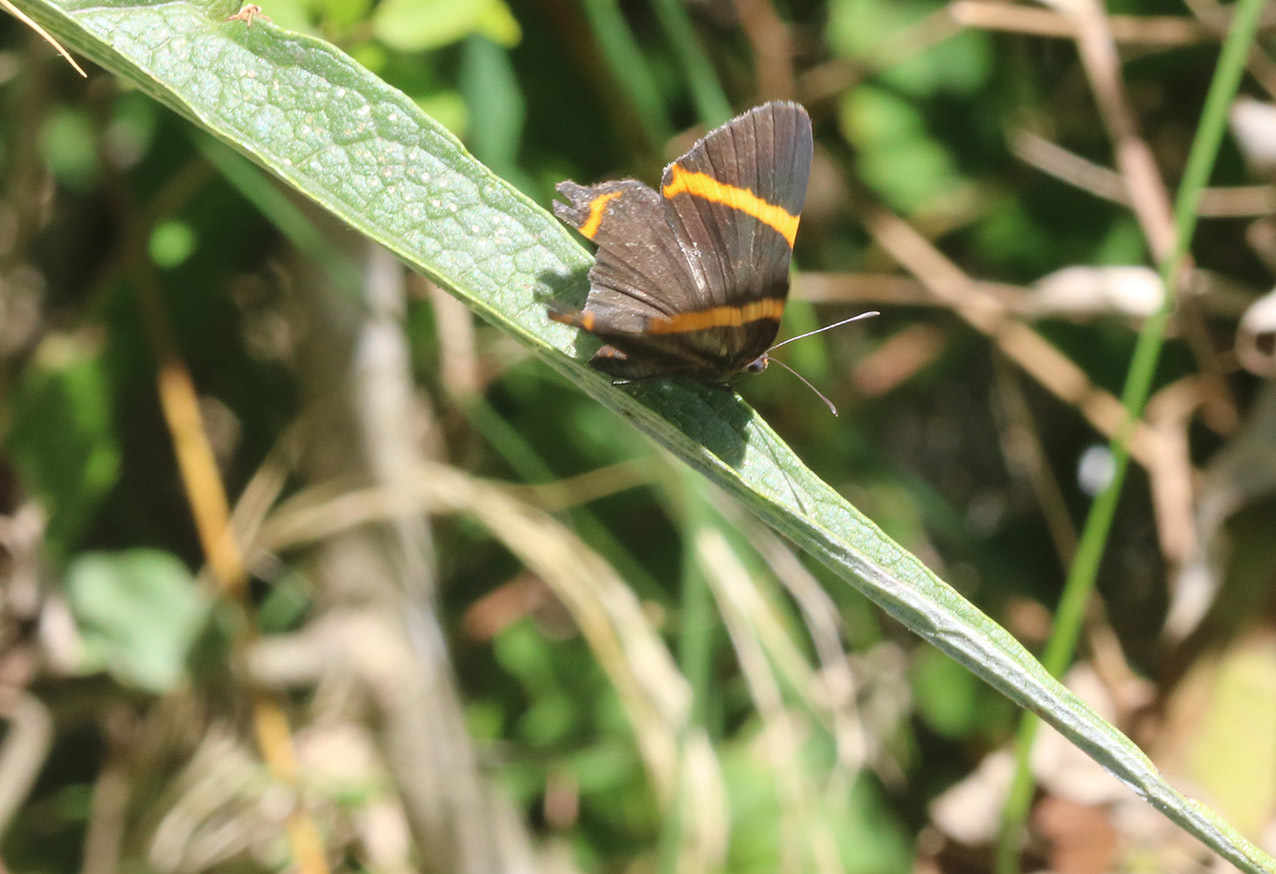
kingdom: Animalia
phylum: Arthropoda
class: Insecta
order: Lepidoptera
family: Riodinidae
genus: Riodina
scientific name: Riodina lysippoides
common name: Little dancer metalmark
